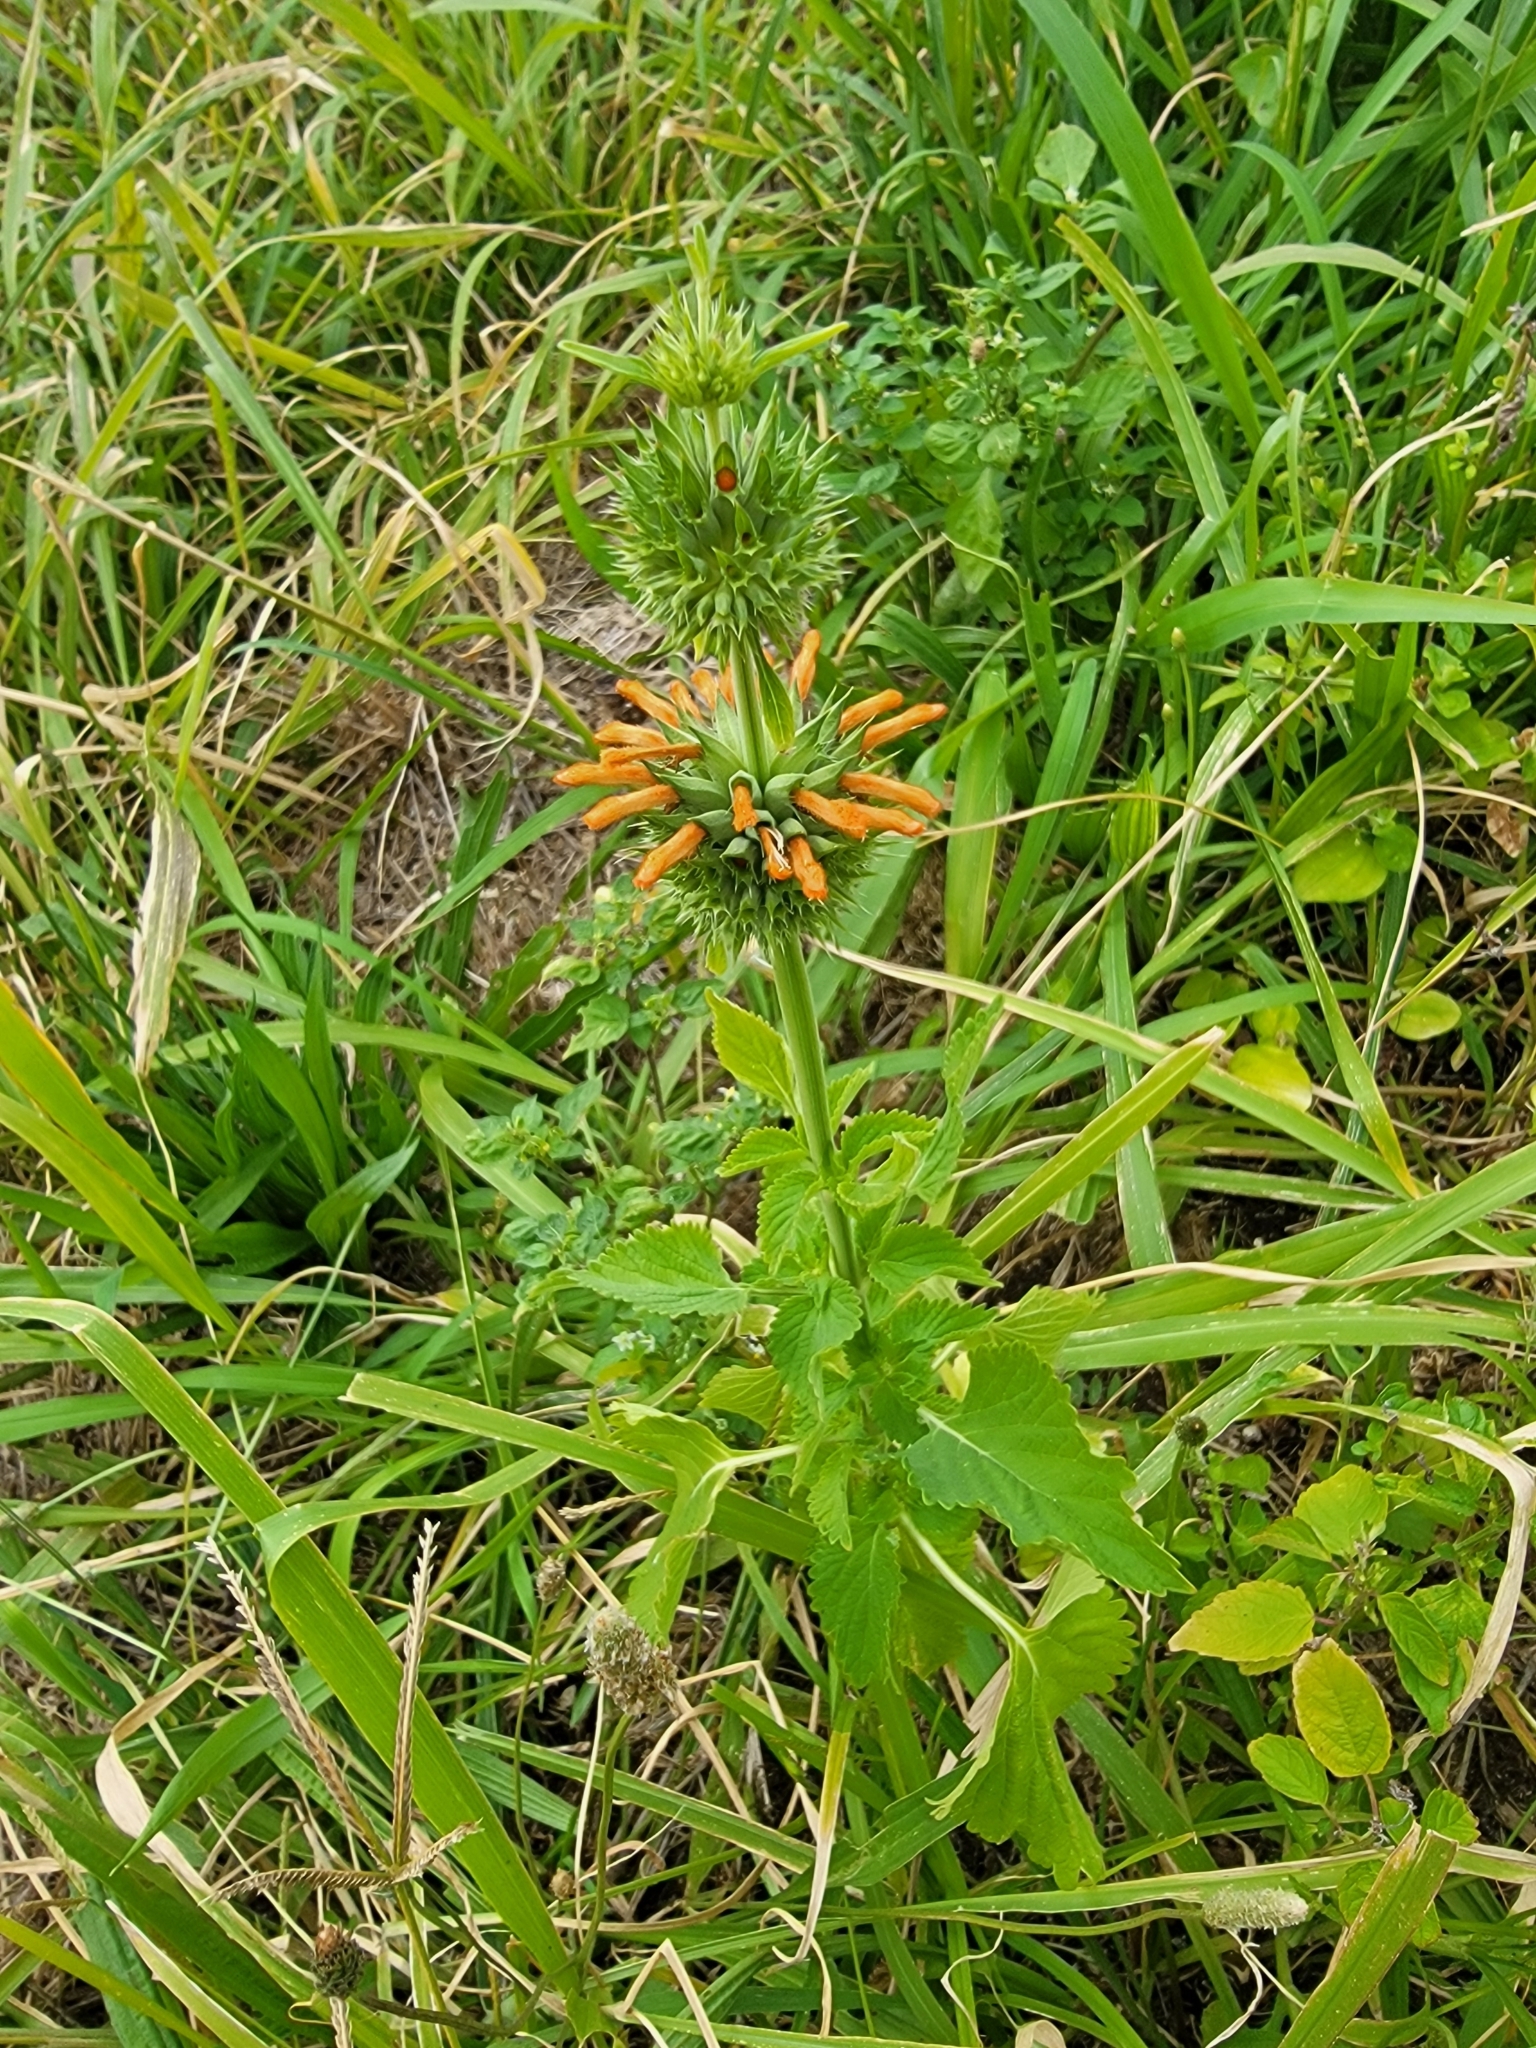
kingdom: Plantae
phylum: Tracheophyta
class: Magnoliopsida
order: Lamiales
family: Lamiaceae
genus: Leonotis
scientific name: Leonotis nepetifolia
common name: Christmas candlestick
